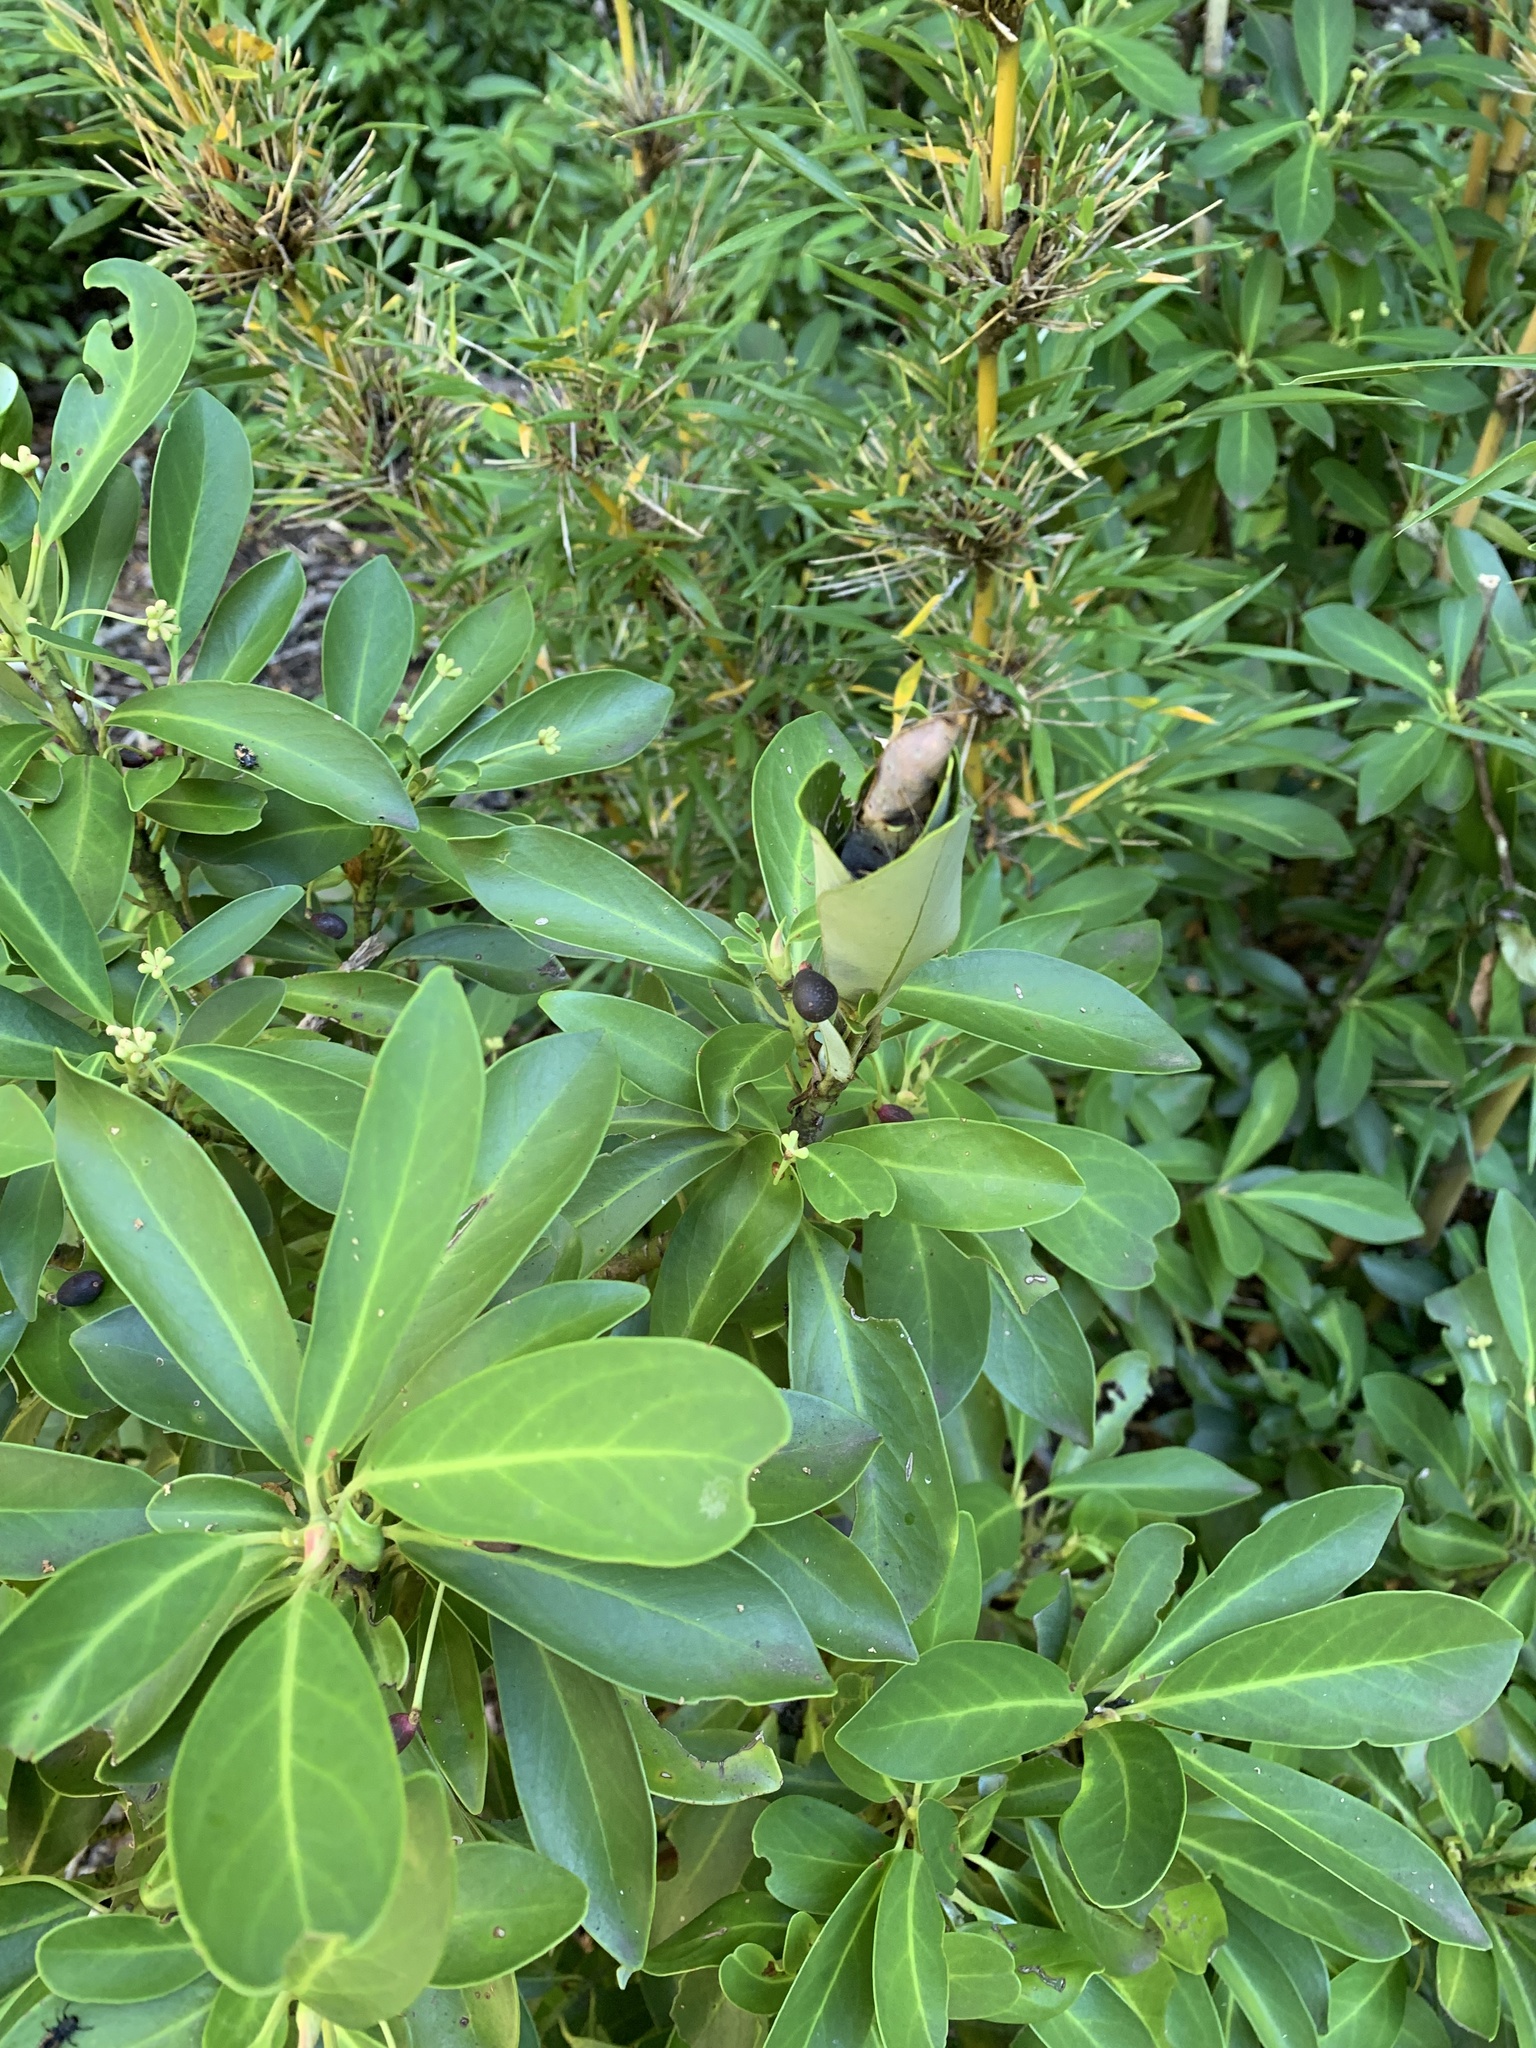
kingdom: Plantae
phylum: Tracheophyta
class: Magnoliopsida
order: Canellales
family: Winteraceae
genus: Drimys
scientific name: Drimys andina
